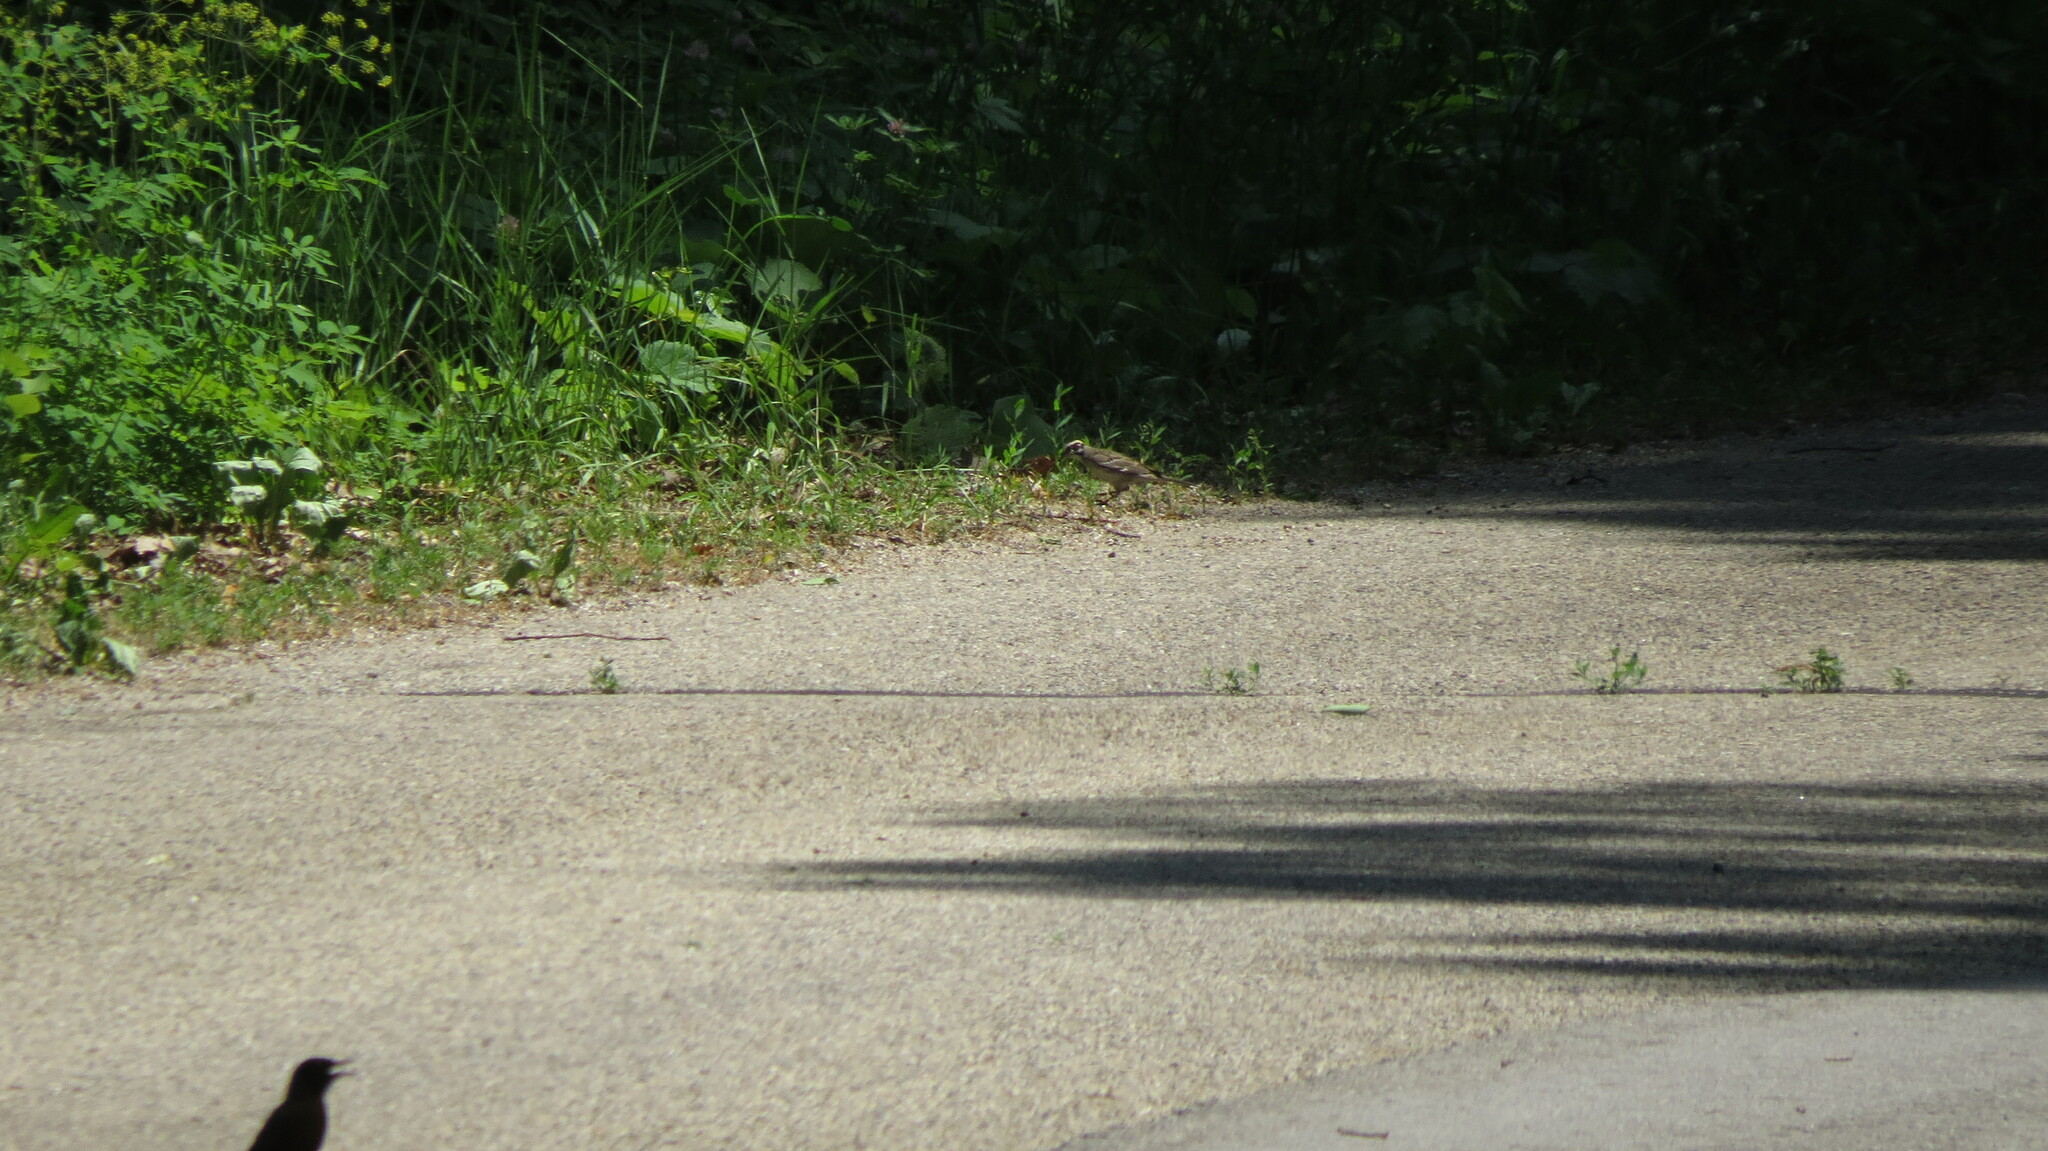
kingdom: Animalia
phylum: Chordata
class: Aves
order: Passeriformes
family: Turdidae
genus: Turdus
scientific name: Turdus migratorius
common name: American robin
